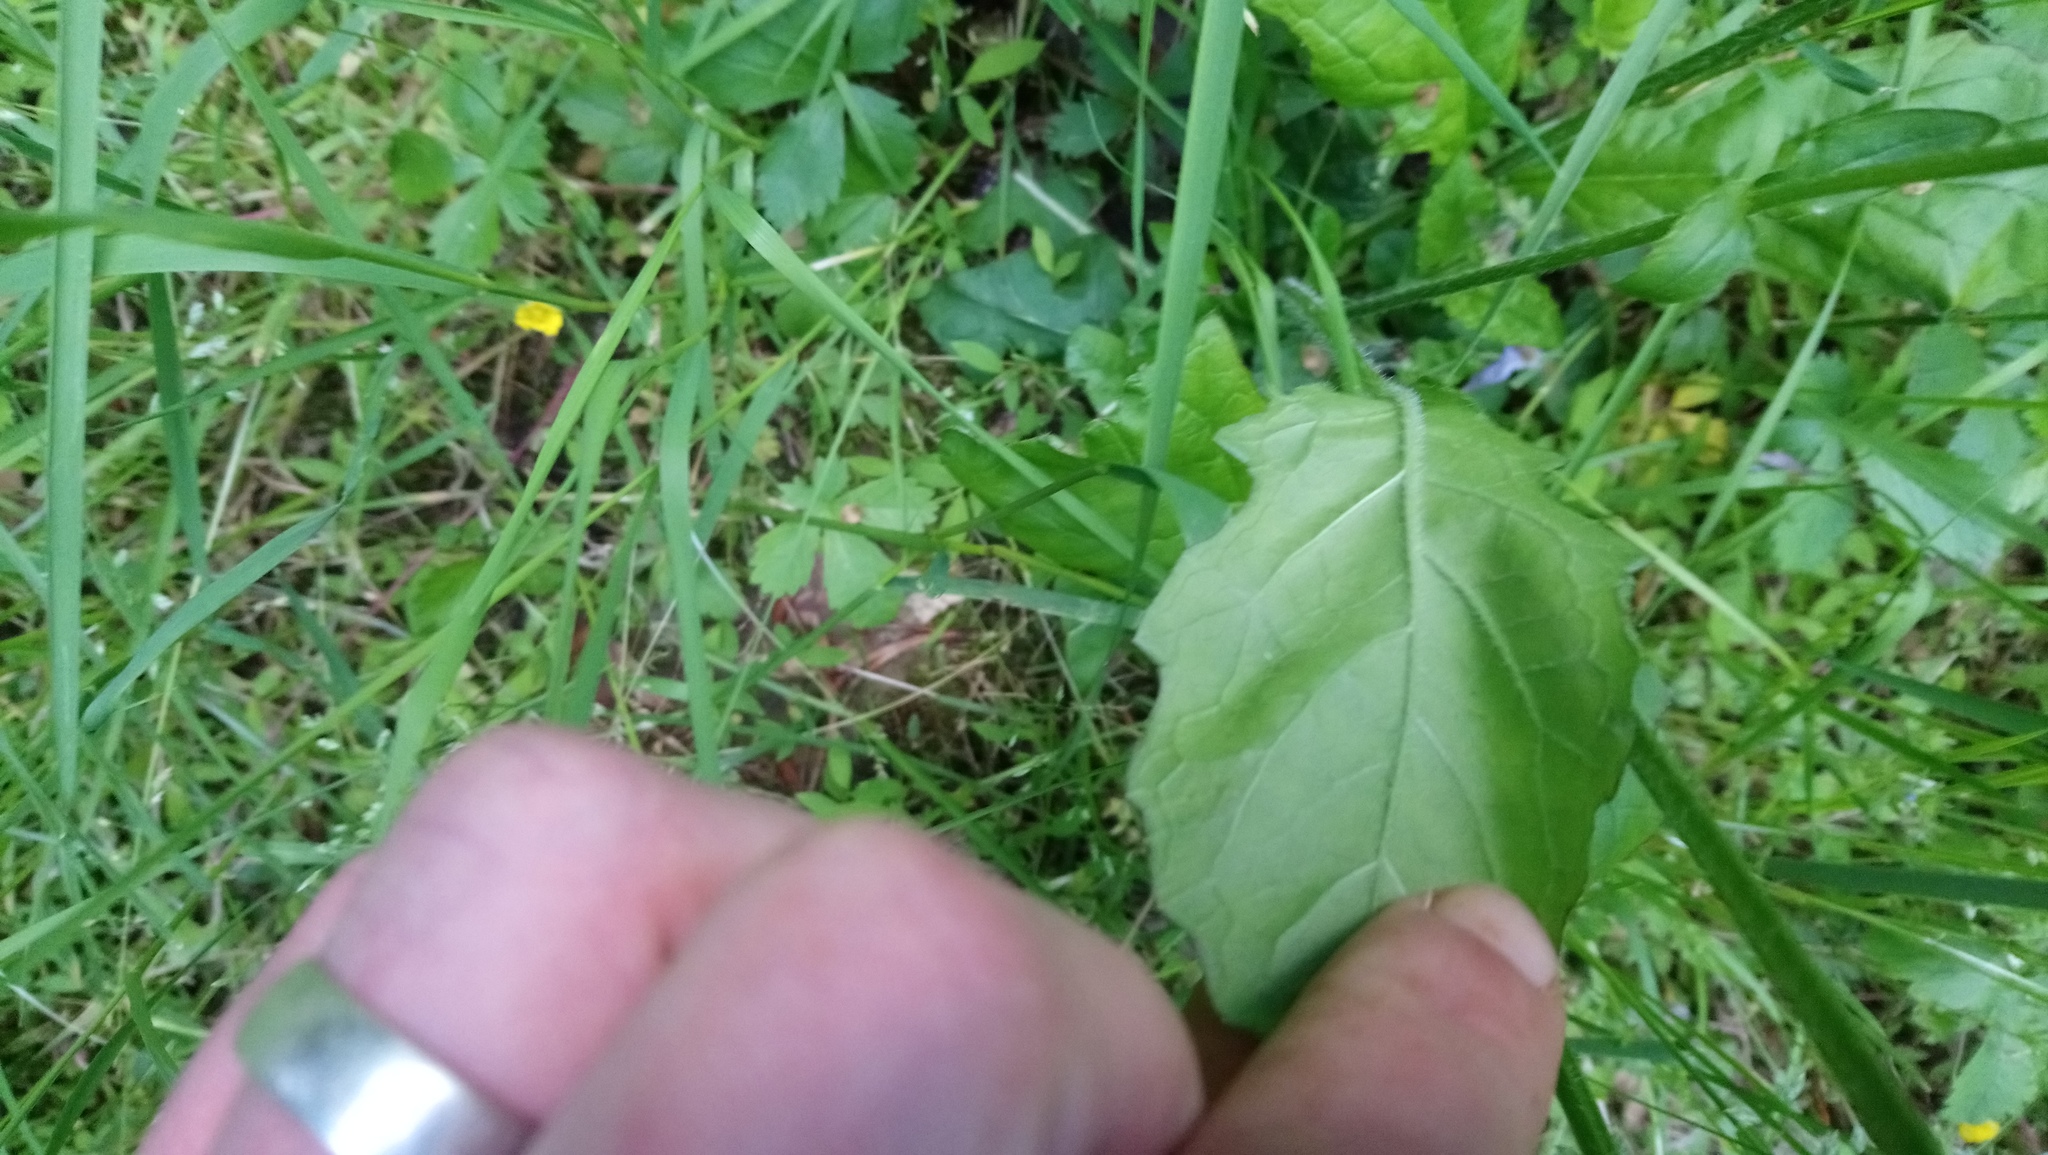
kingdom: Plantae
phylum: Tracheophyta
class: Magnoliopsida
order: Lamiales
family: Lamiaceae
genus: Salvia
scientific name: Salvia lyrata
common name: Cancerweed
